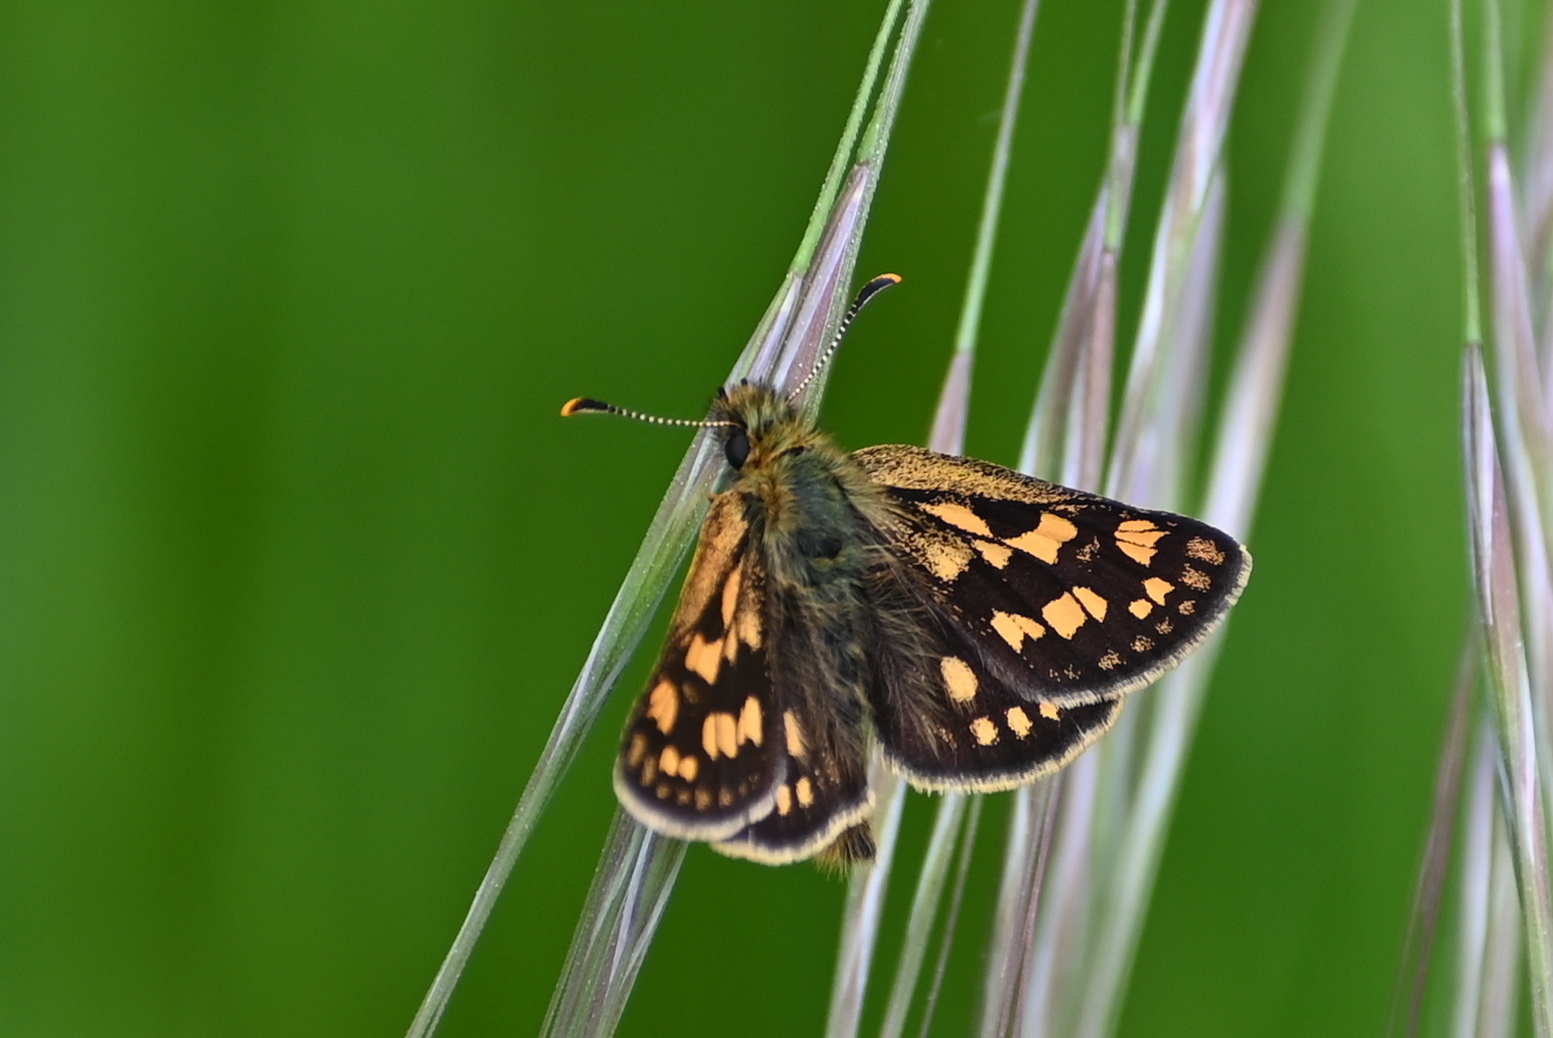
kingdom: Animalia
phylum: Arthropoda
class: Insecta
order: Lepidoptera
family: Hesperiidae
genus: Carterocephalus
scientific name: Carterocephalus palaemon
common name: Chequered skipper
